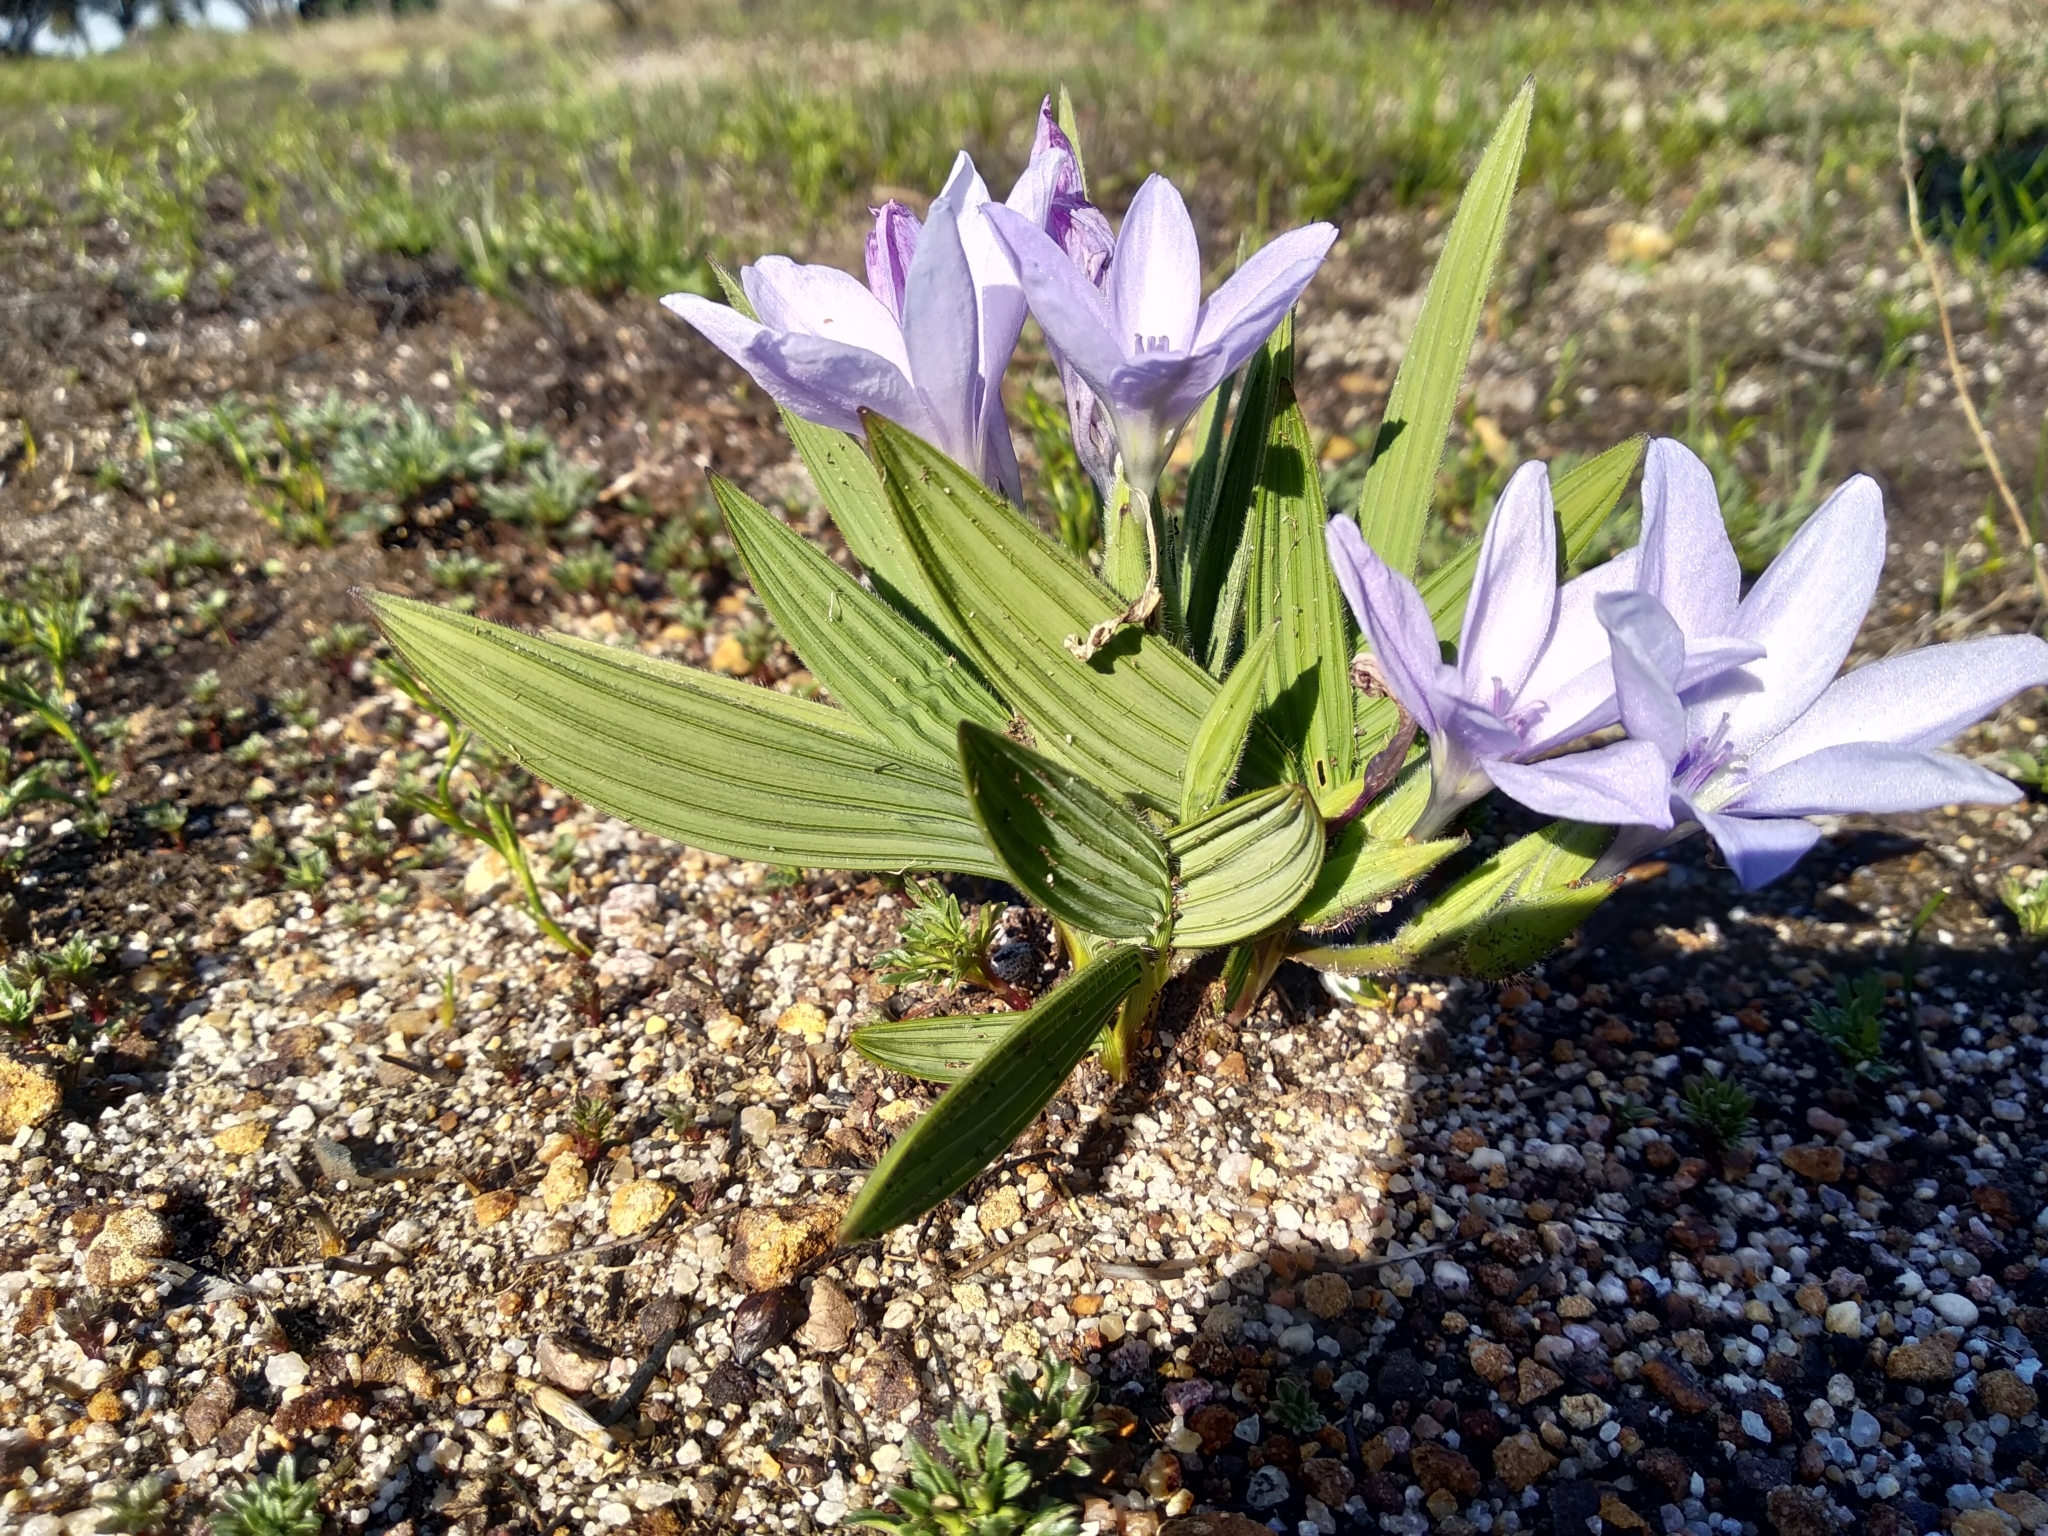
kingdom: Plantae
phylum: Tracheophyta
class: Liliopsida
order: Asparagales
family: Iridaceae
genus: Babiana
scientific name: Babiana villosula
